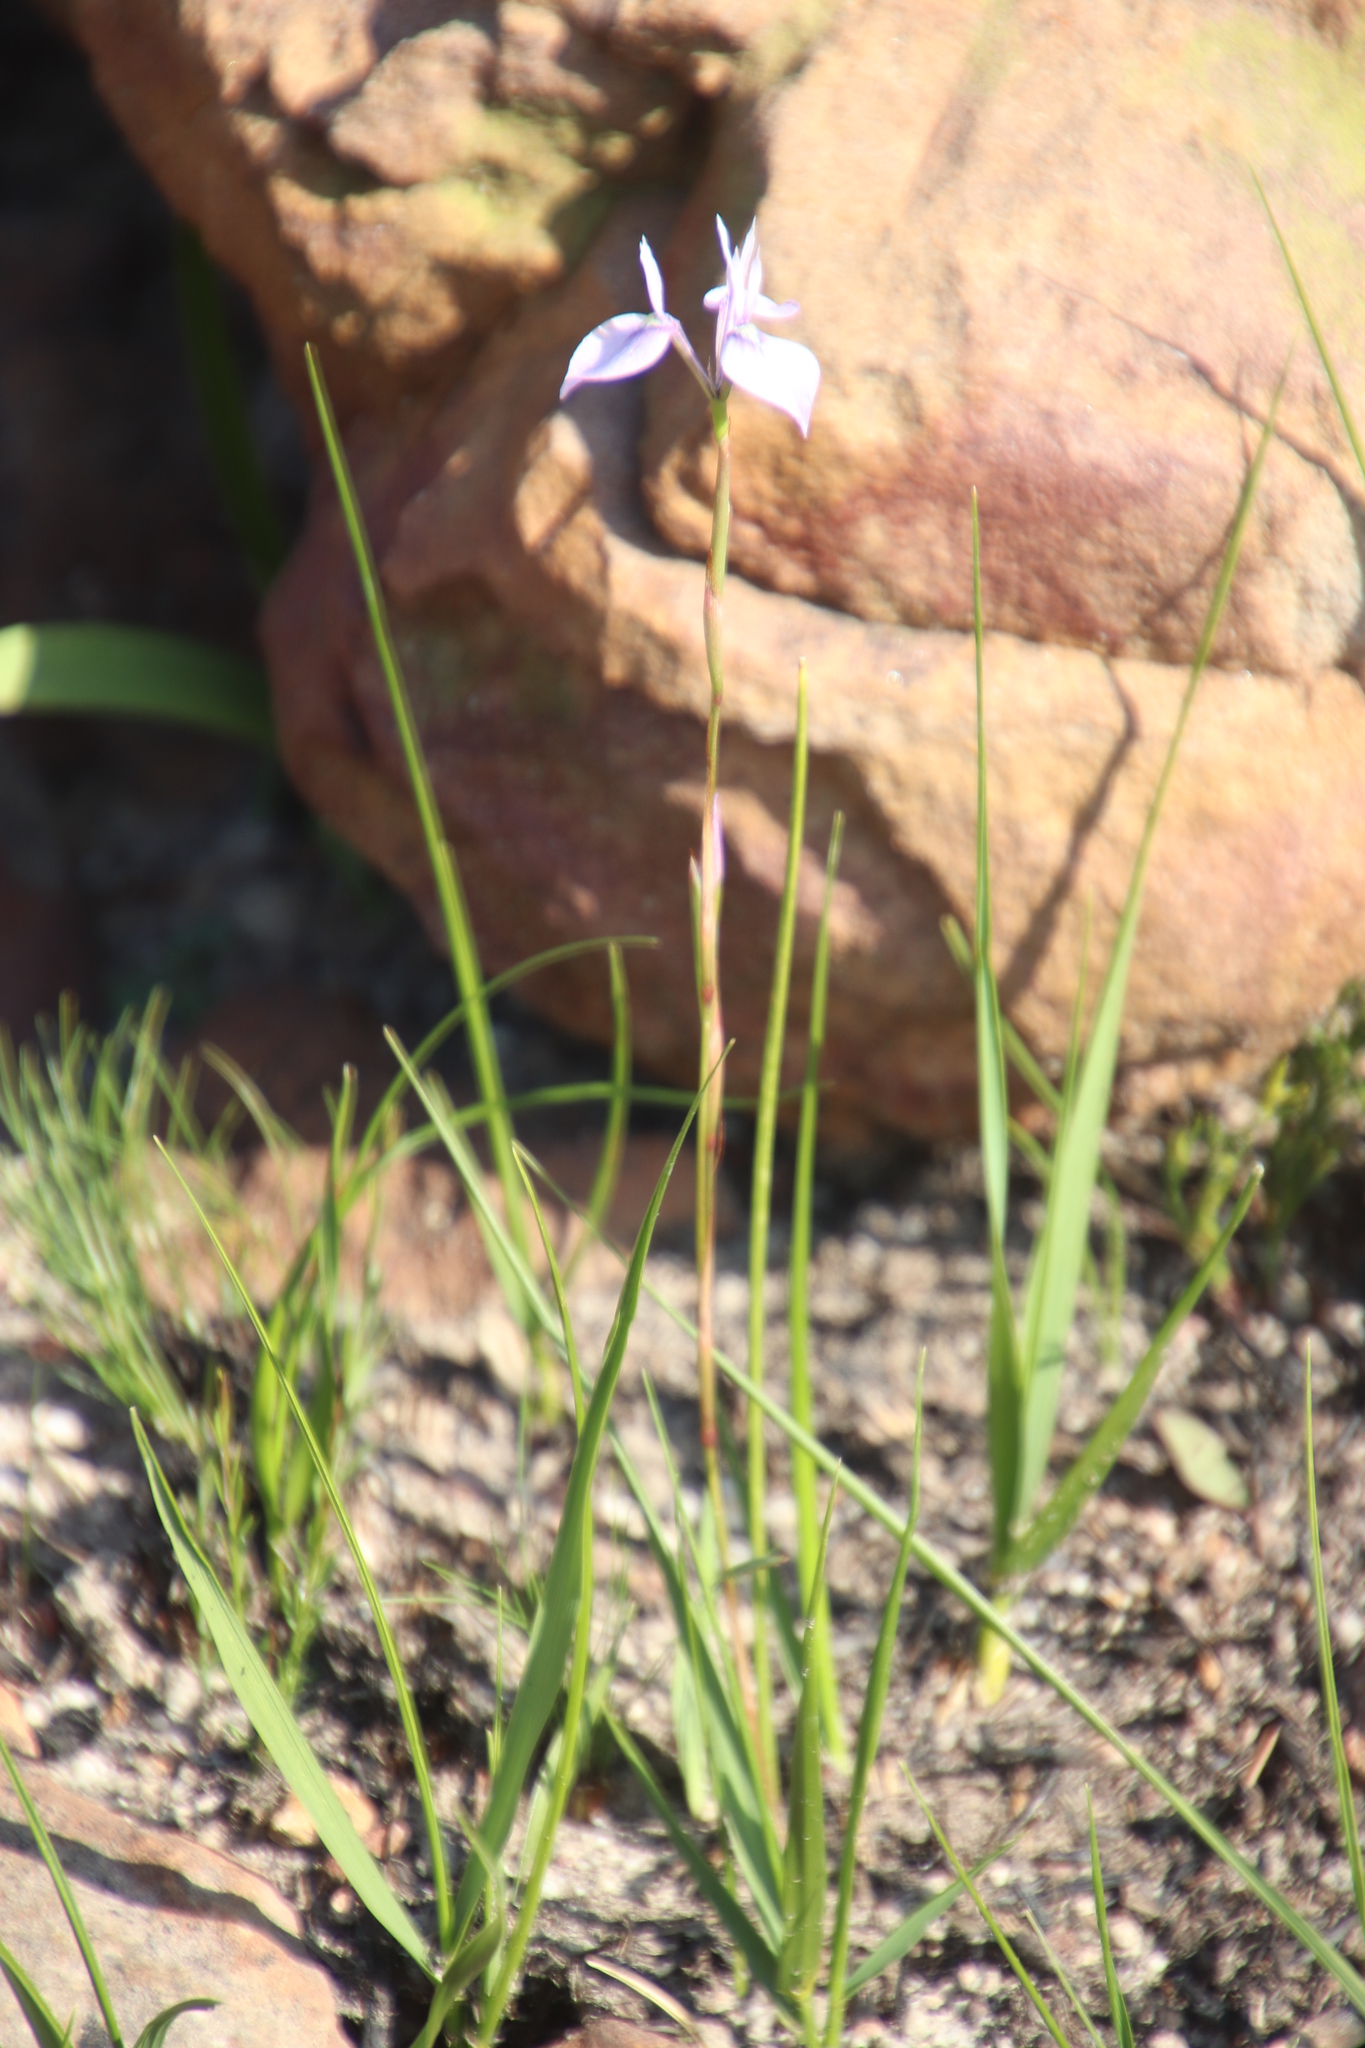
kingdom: Plantae
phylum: Tracheophyta
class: Liliopsida
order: Asparagales
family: Iridaceae
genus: Moraea
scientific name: Moraea tripetala
